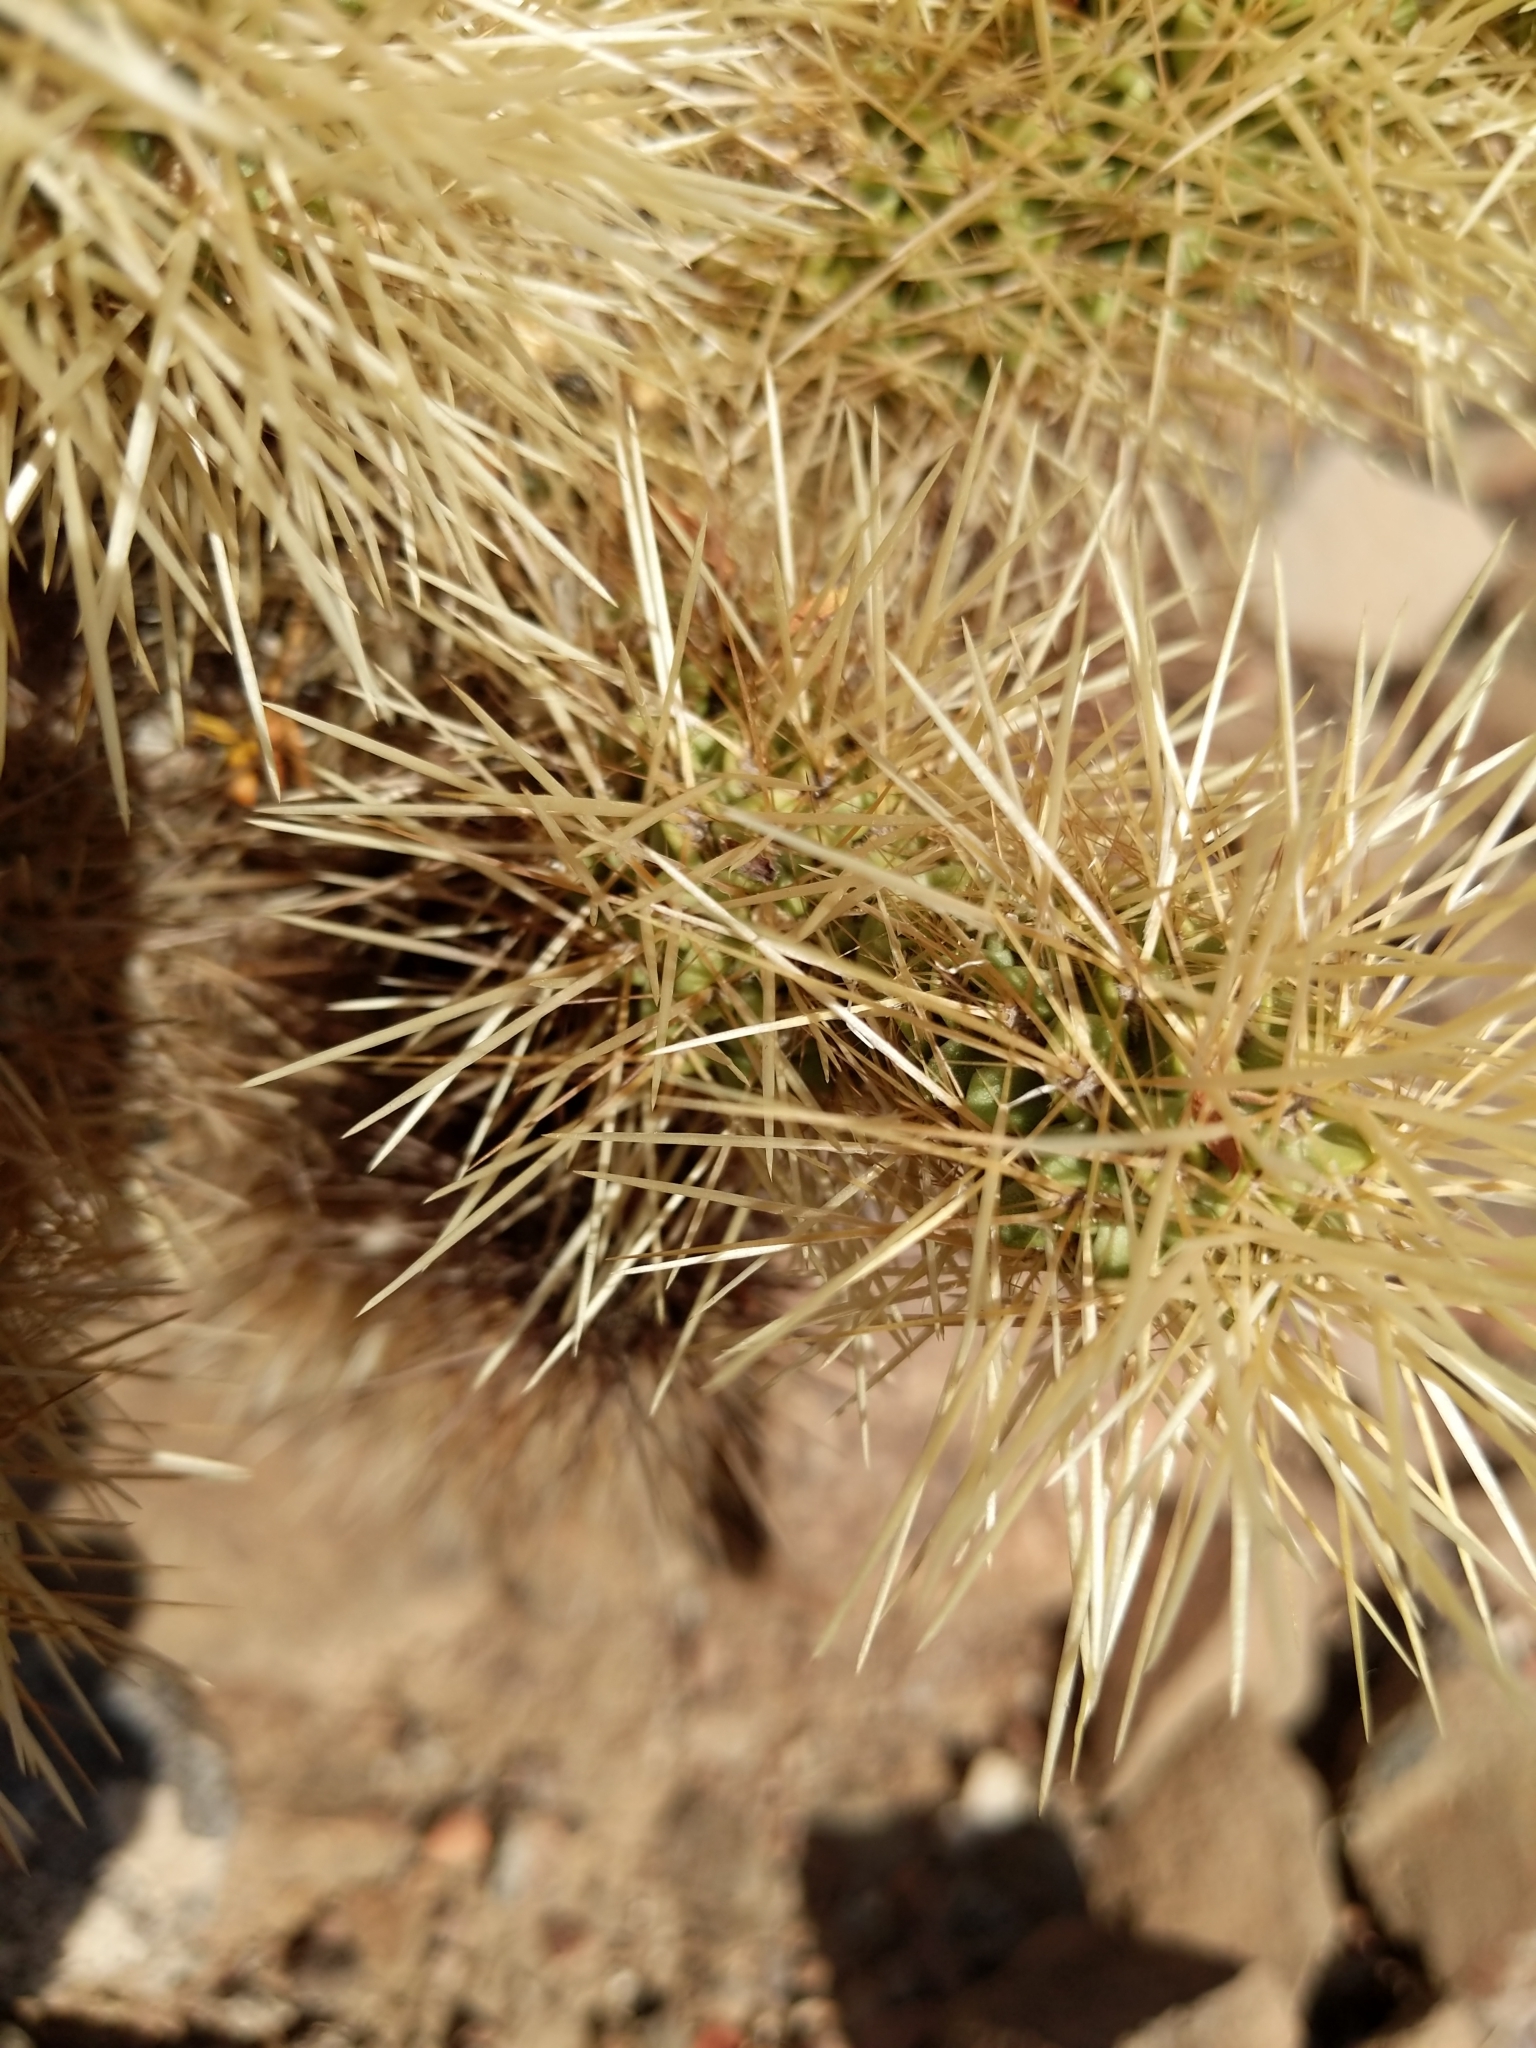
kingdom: Plantae
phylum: Tracheophyta
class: Magnoliopsida
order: Caryophyllales
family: Cactaceae
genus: Cylindropuntia
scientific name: Cylindropuntia fosbergii
